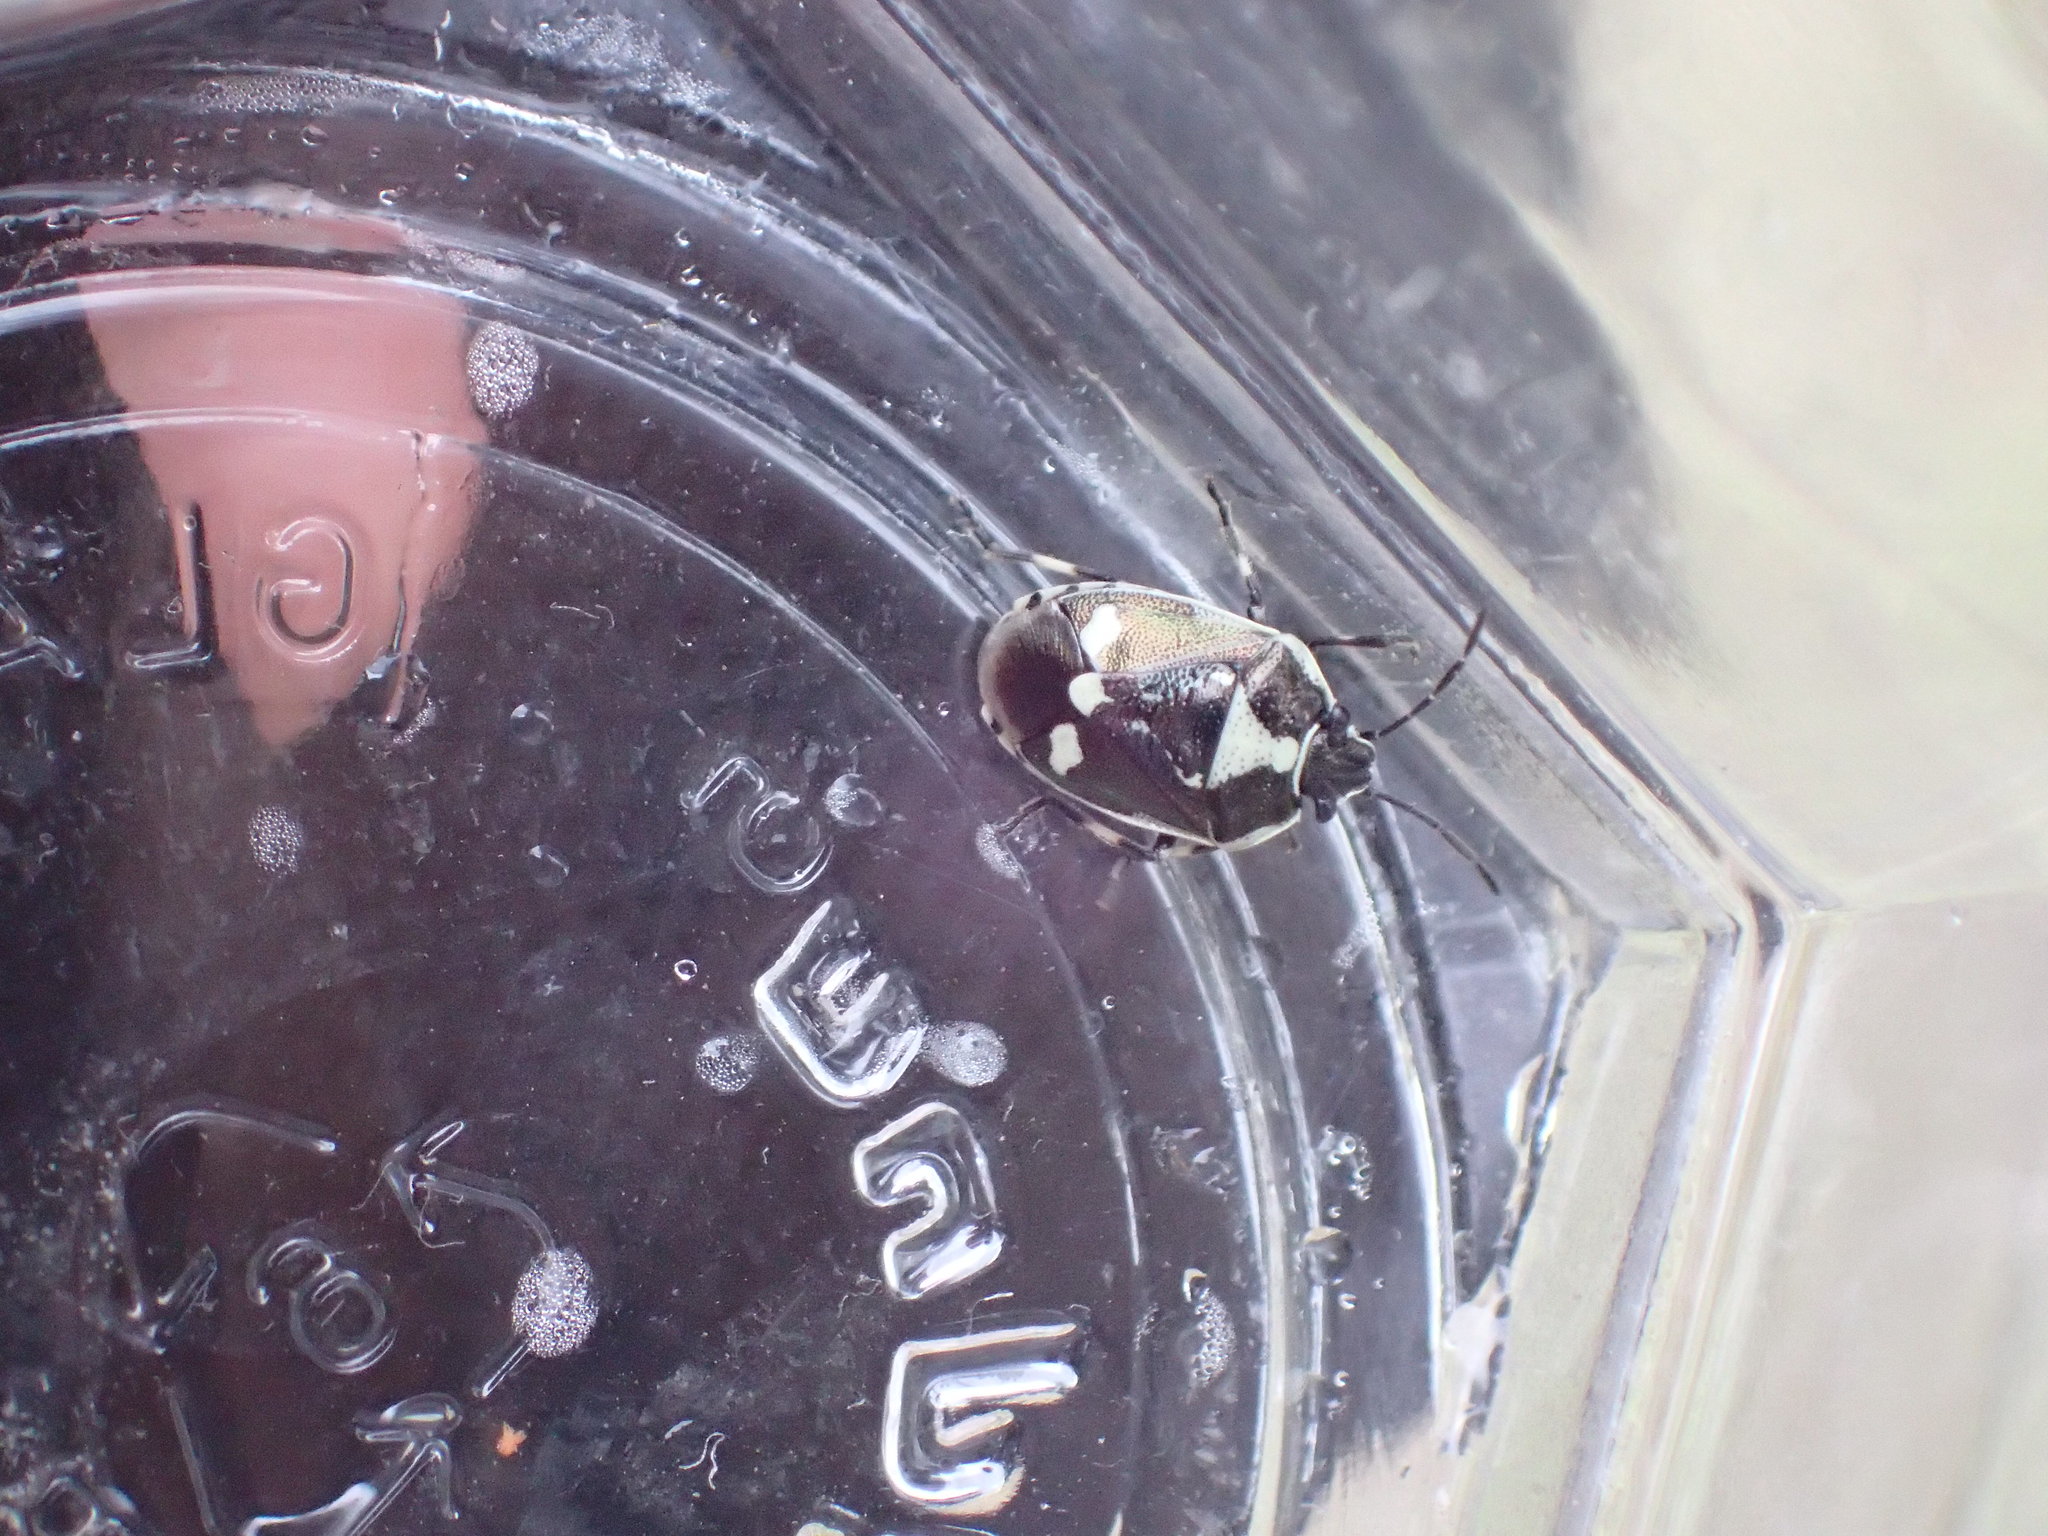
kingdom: Animalia
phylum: Arthropoda
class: Insecta
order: Hemiptera
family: Pentatomidae
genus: Eurydema
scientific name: Eurydema oleracea
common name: Cabbage bug
